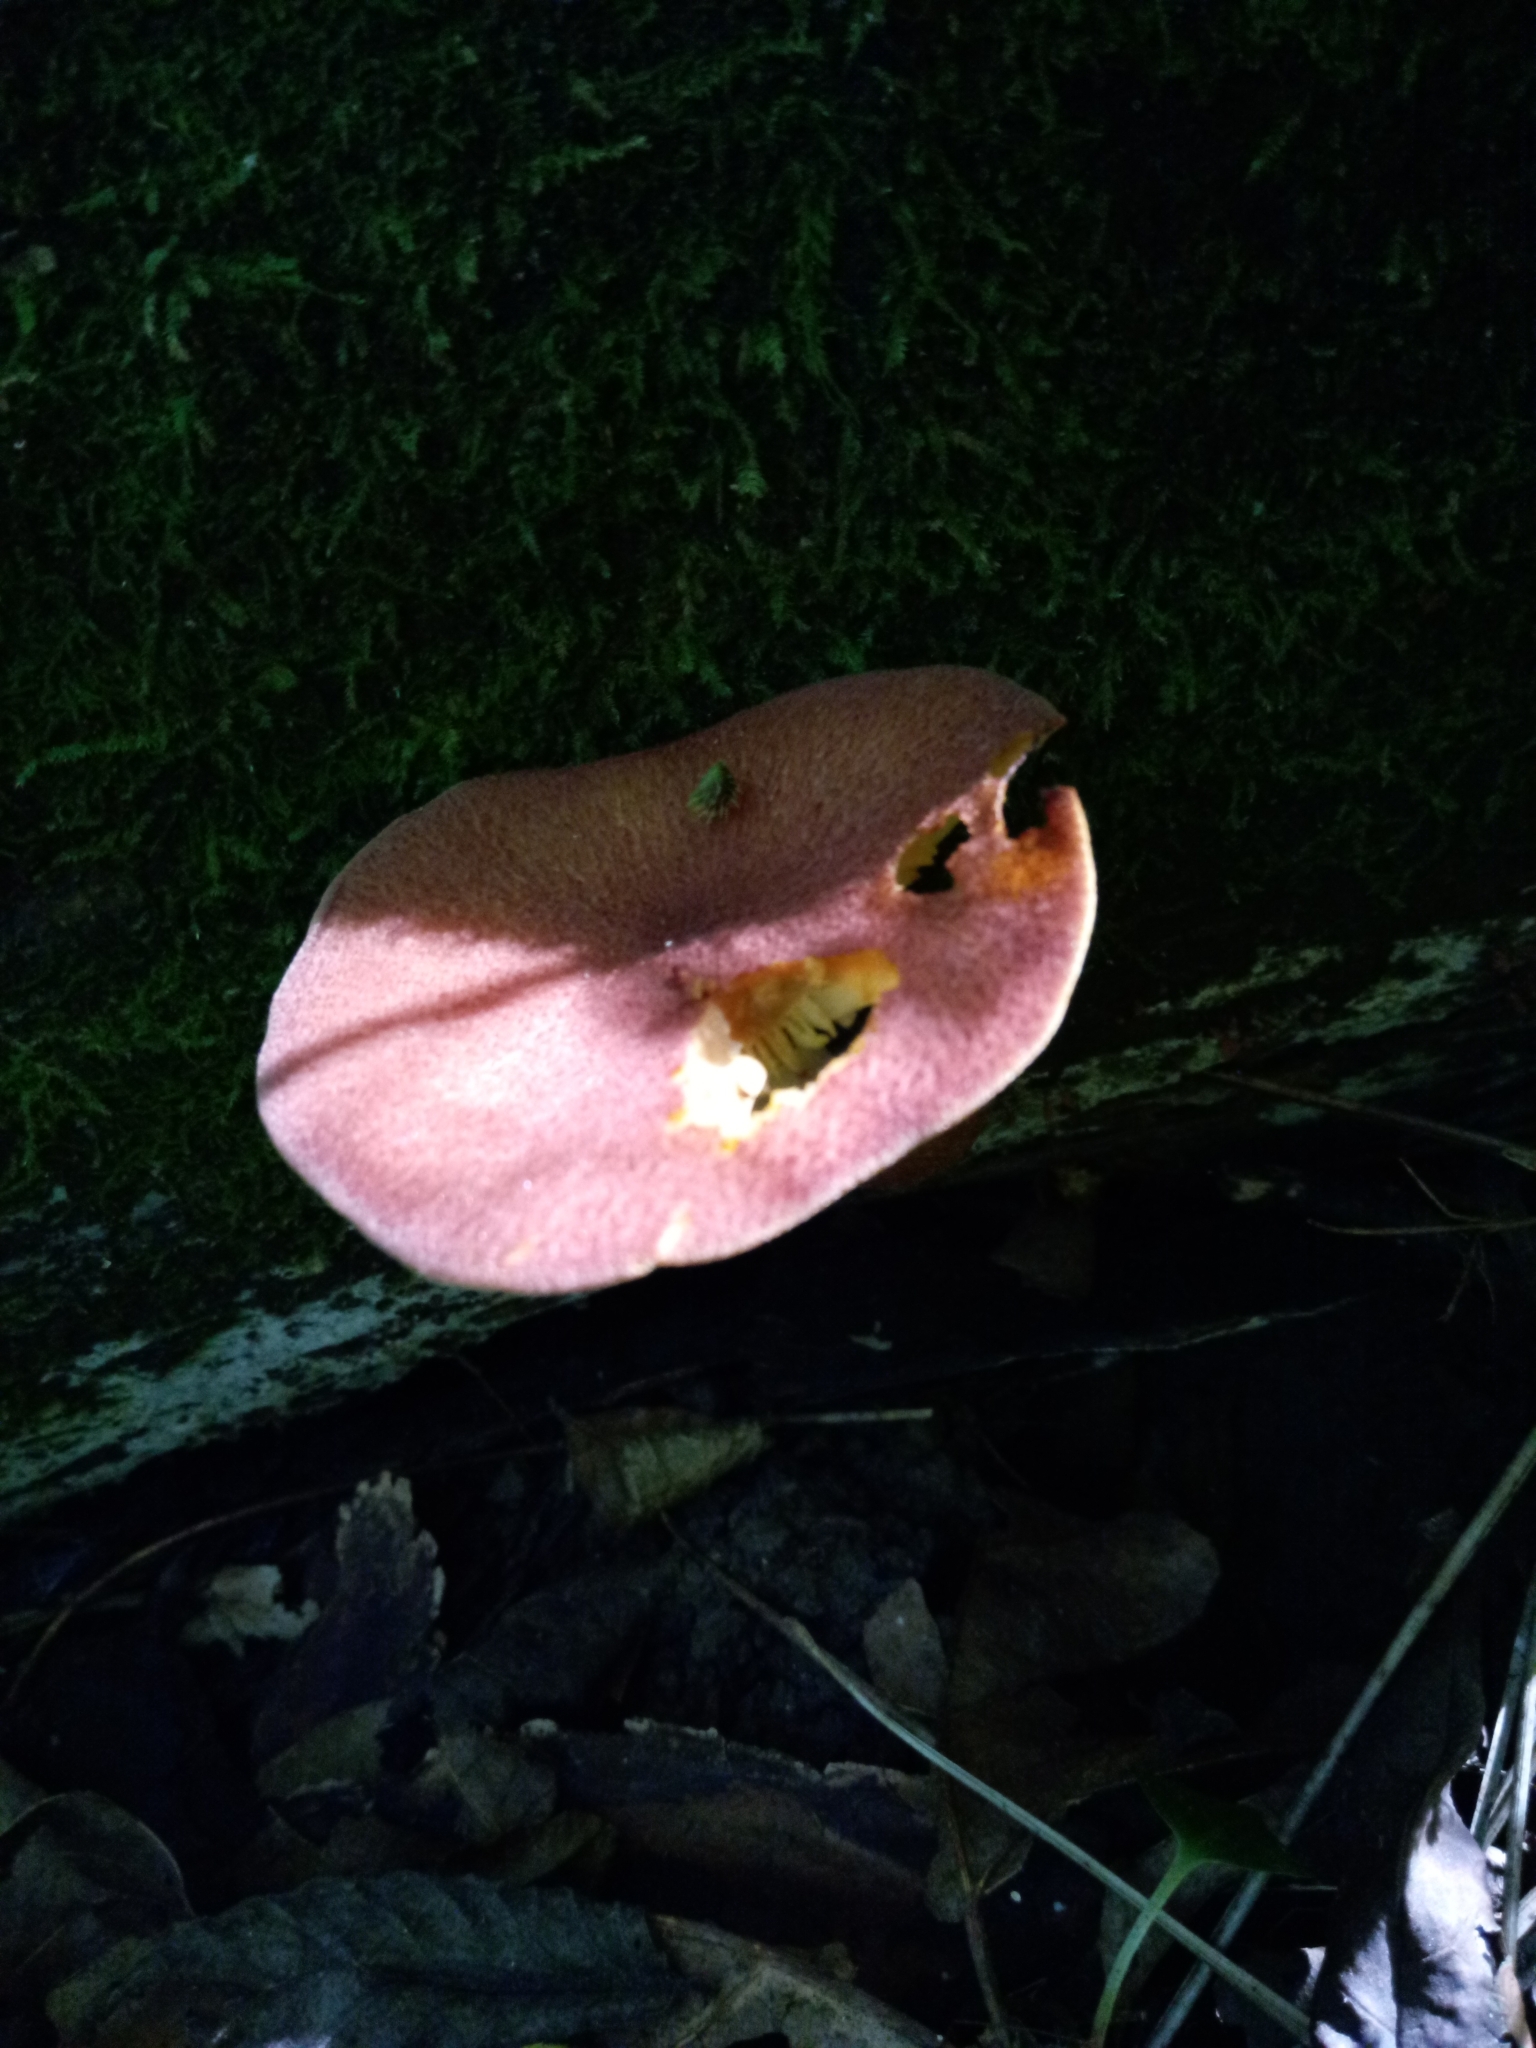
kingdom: Fungi
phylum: Basidiomycota
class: Agaricomycetes
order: Agaricales
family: Tricholomataceae
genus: Tricholomopsis
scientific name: Tricholomopsis rutilans
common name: Plums and custard
